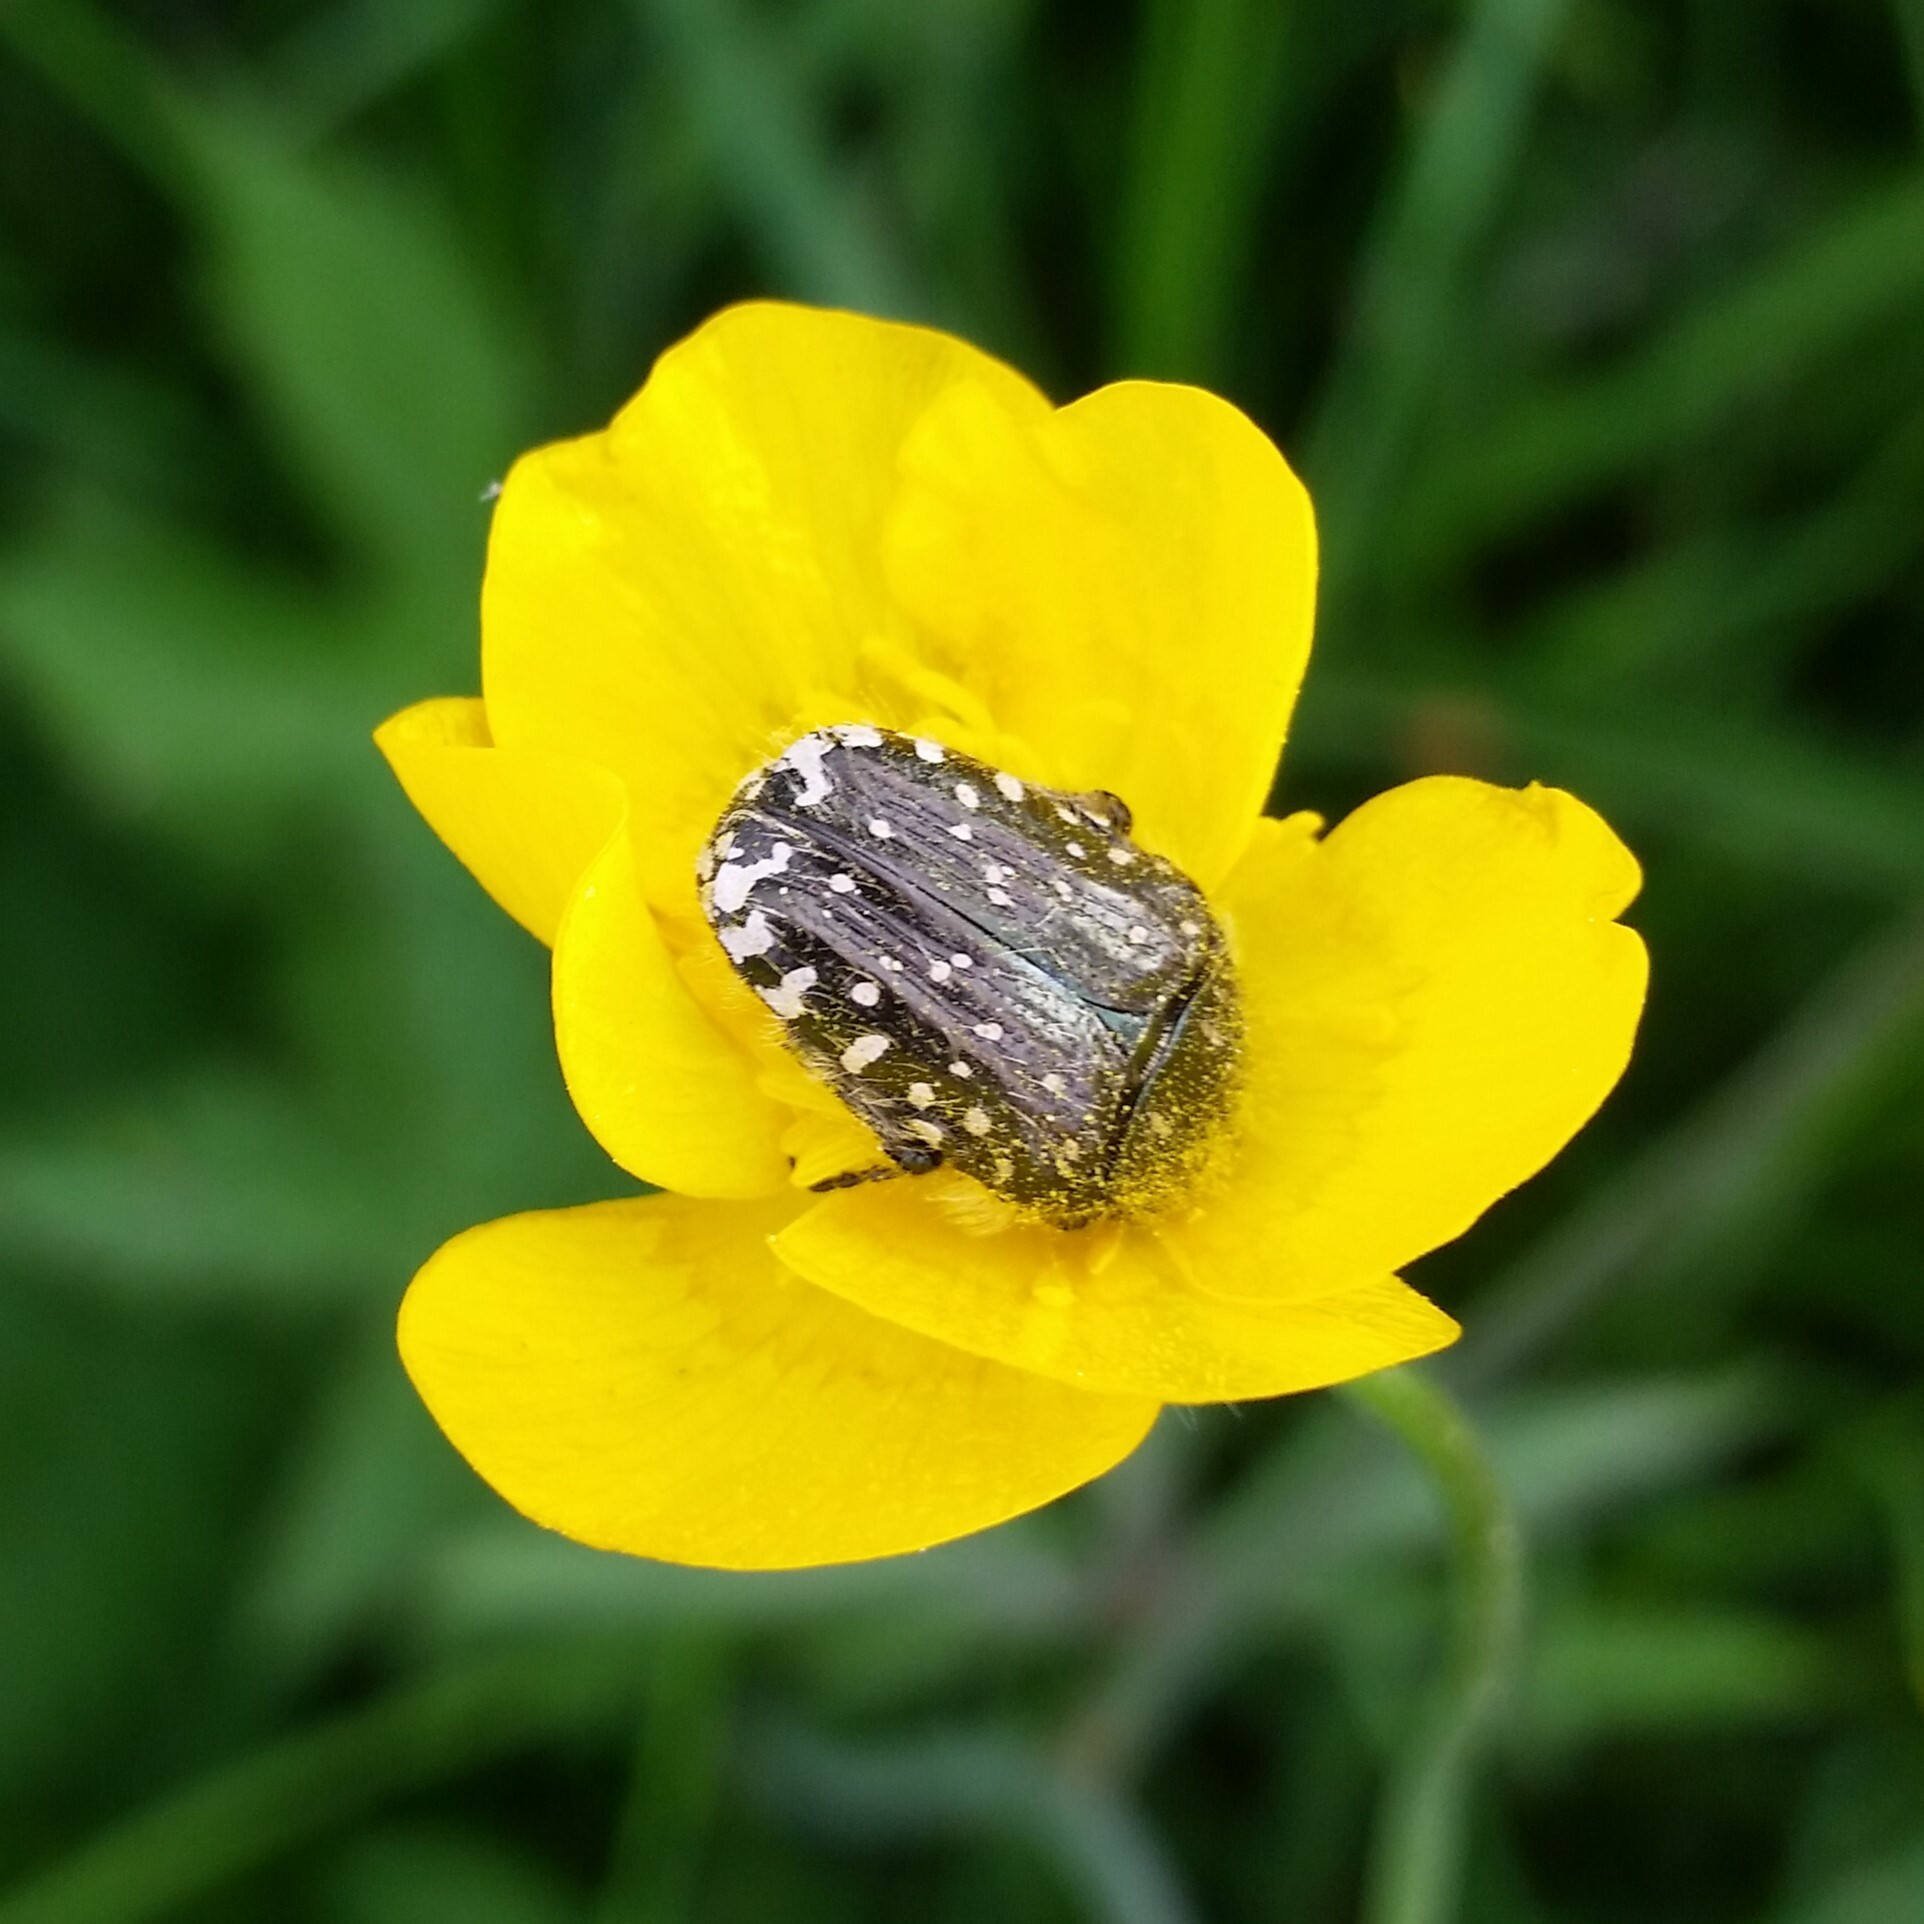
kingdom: Animalia
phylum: Arthropoda
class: Insecta
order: Coleoptera
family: Scarabaeidae
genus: Oxythyrea
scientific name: Oxythyrea funesta
